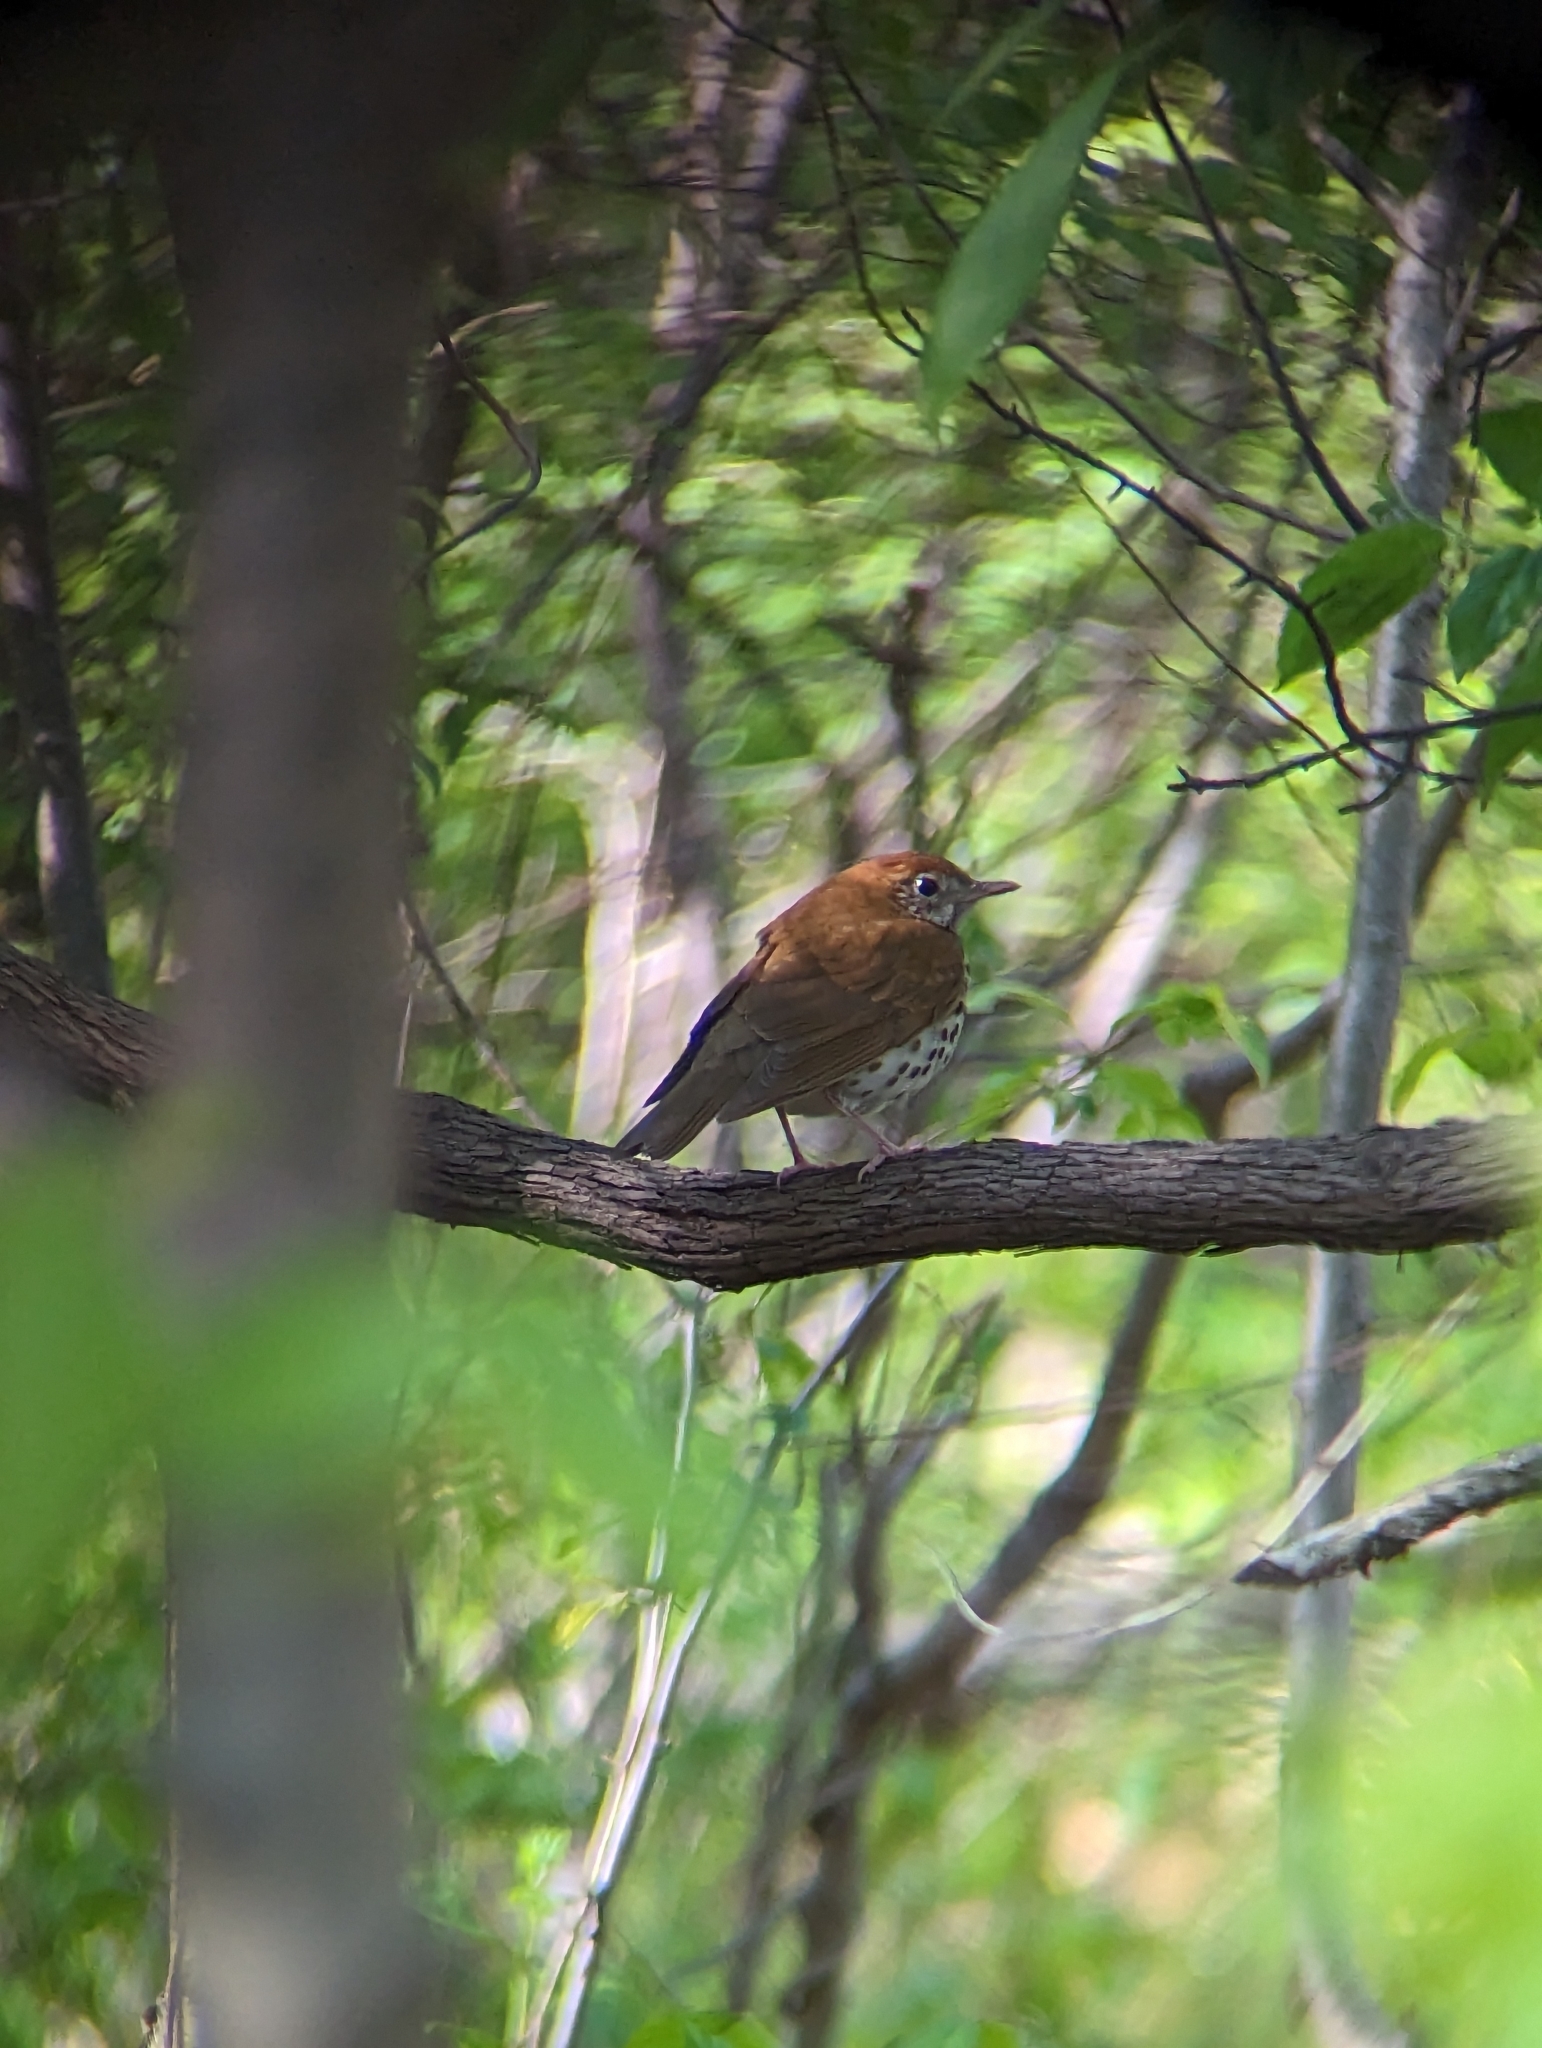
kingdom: Animalia
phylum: Chordata
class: Aves
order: Passeriformes
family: Turdidae
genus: Hylocichla
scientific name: Hylocichla mustelina
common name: Wood thrush
